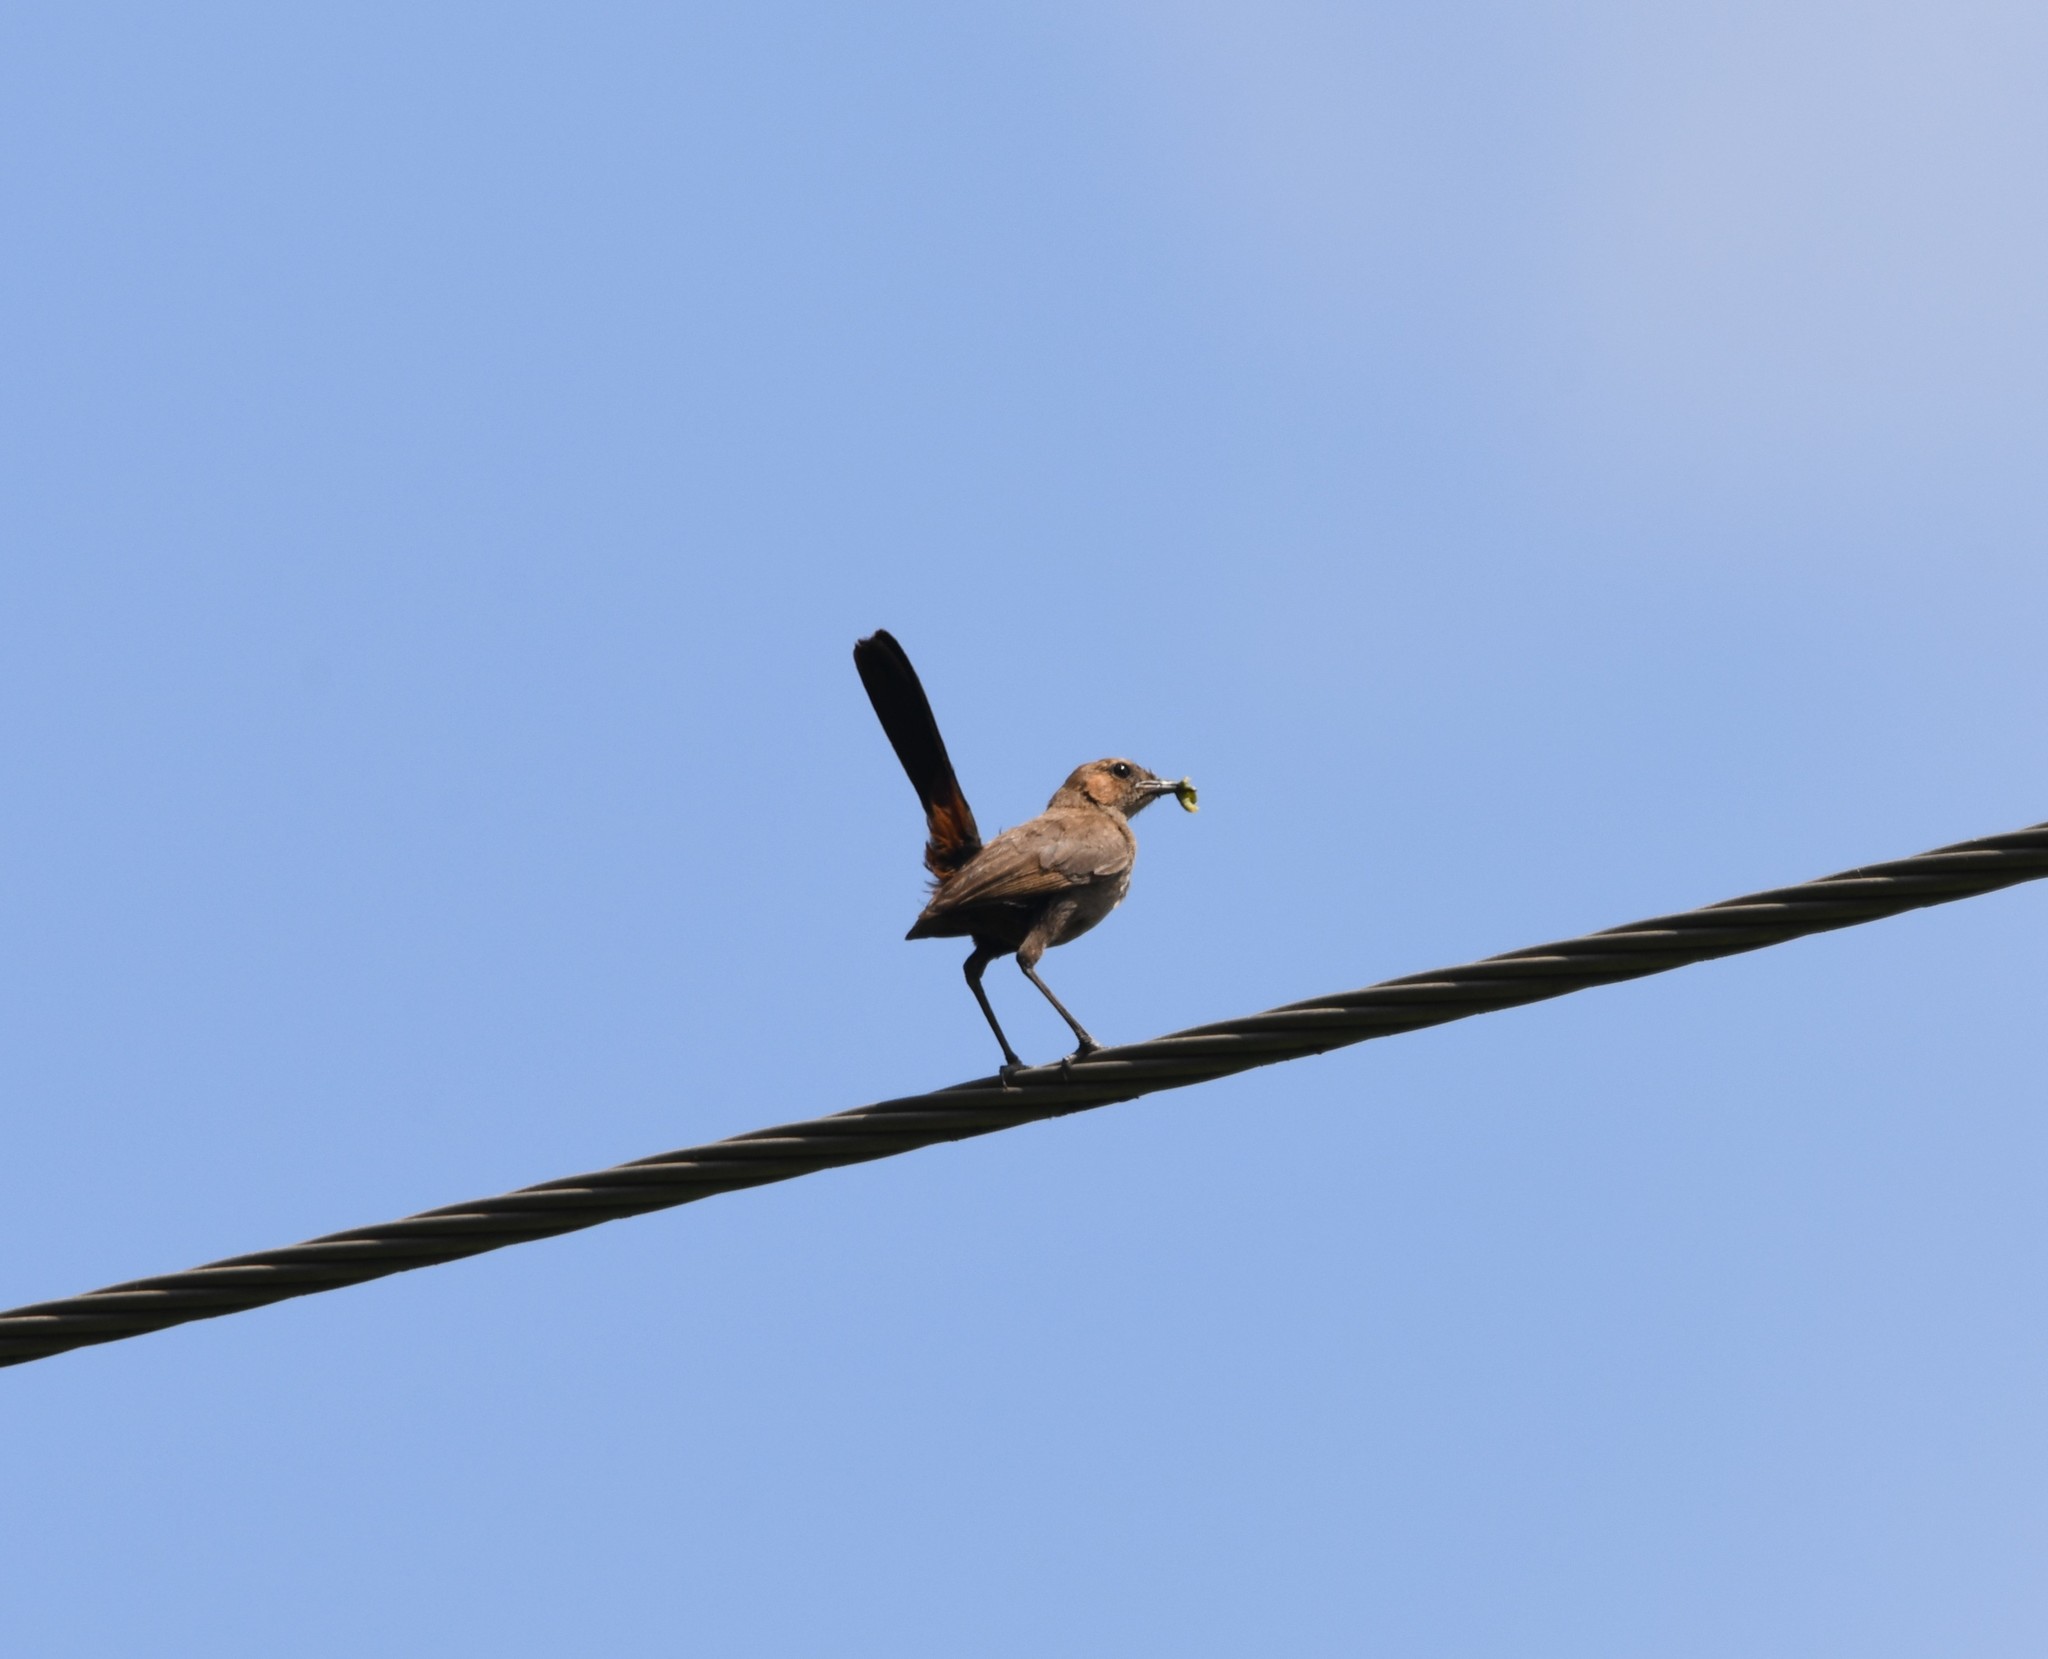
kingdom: Animalia
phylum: Chordata
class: Aves
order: Passeriformes
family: Muscicapidae
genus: Saxicoloides
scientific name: Saxicoloides fulicatus
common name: Indian robin
